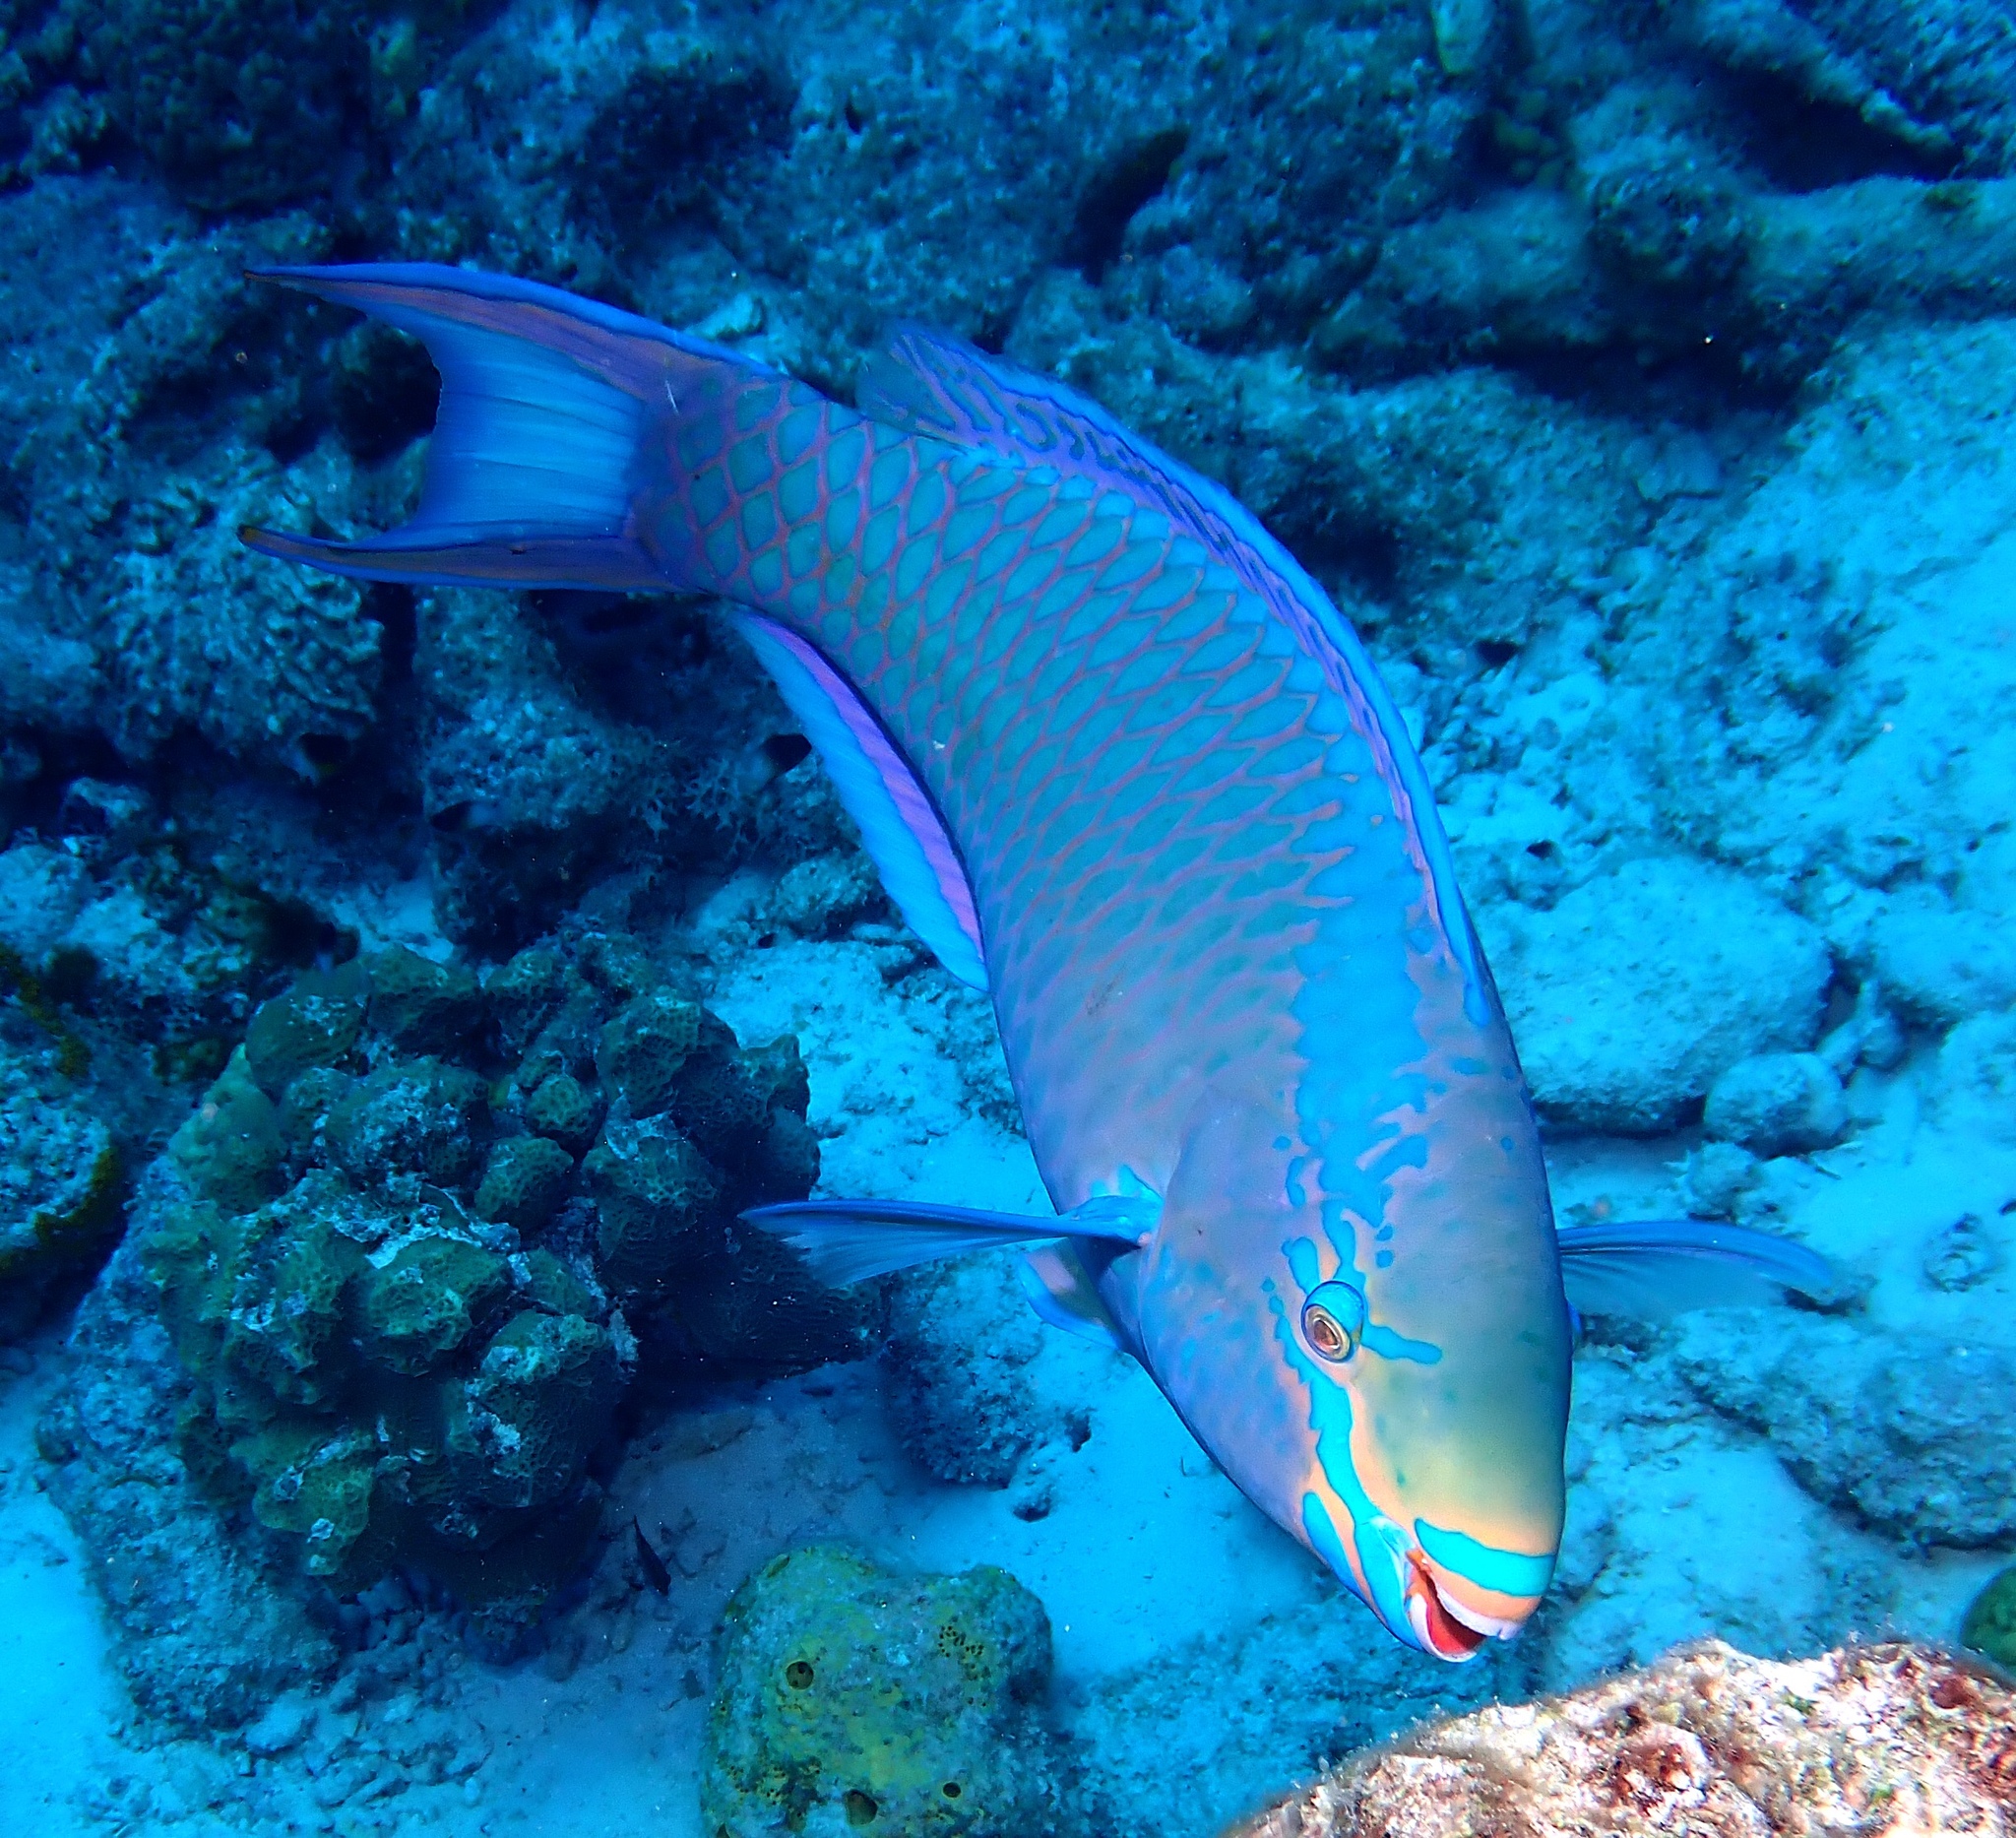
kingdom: Animalia
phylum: Chordata
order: Perciformes
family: Scaridae
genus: Scarus
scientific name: Scarus vetula
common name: Queen parrotfish
